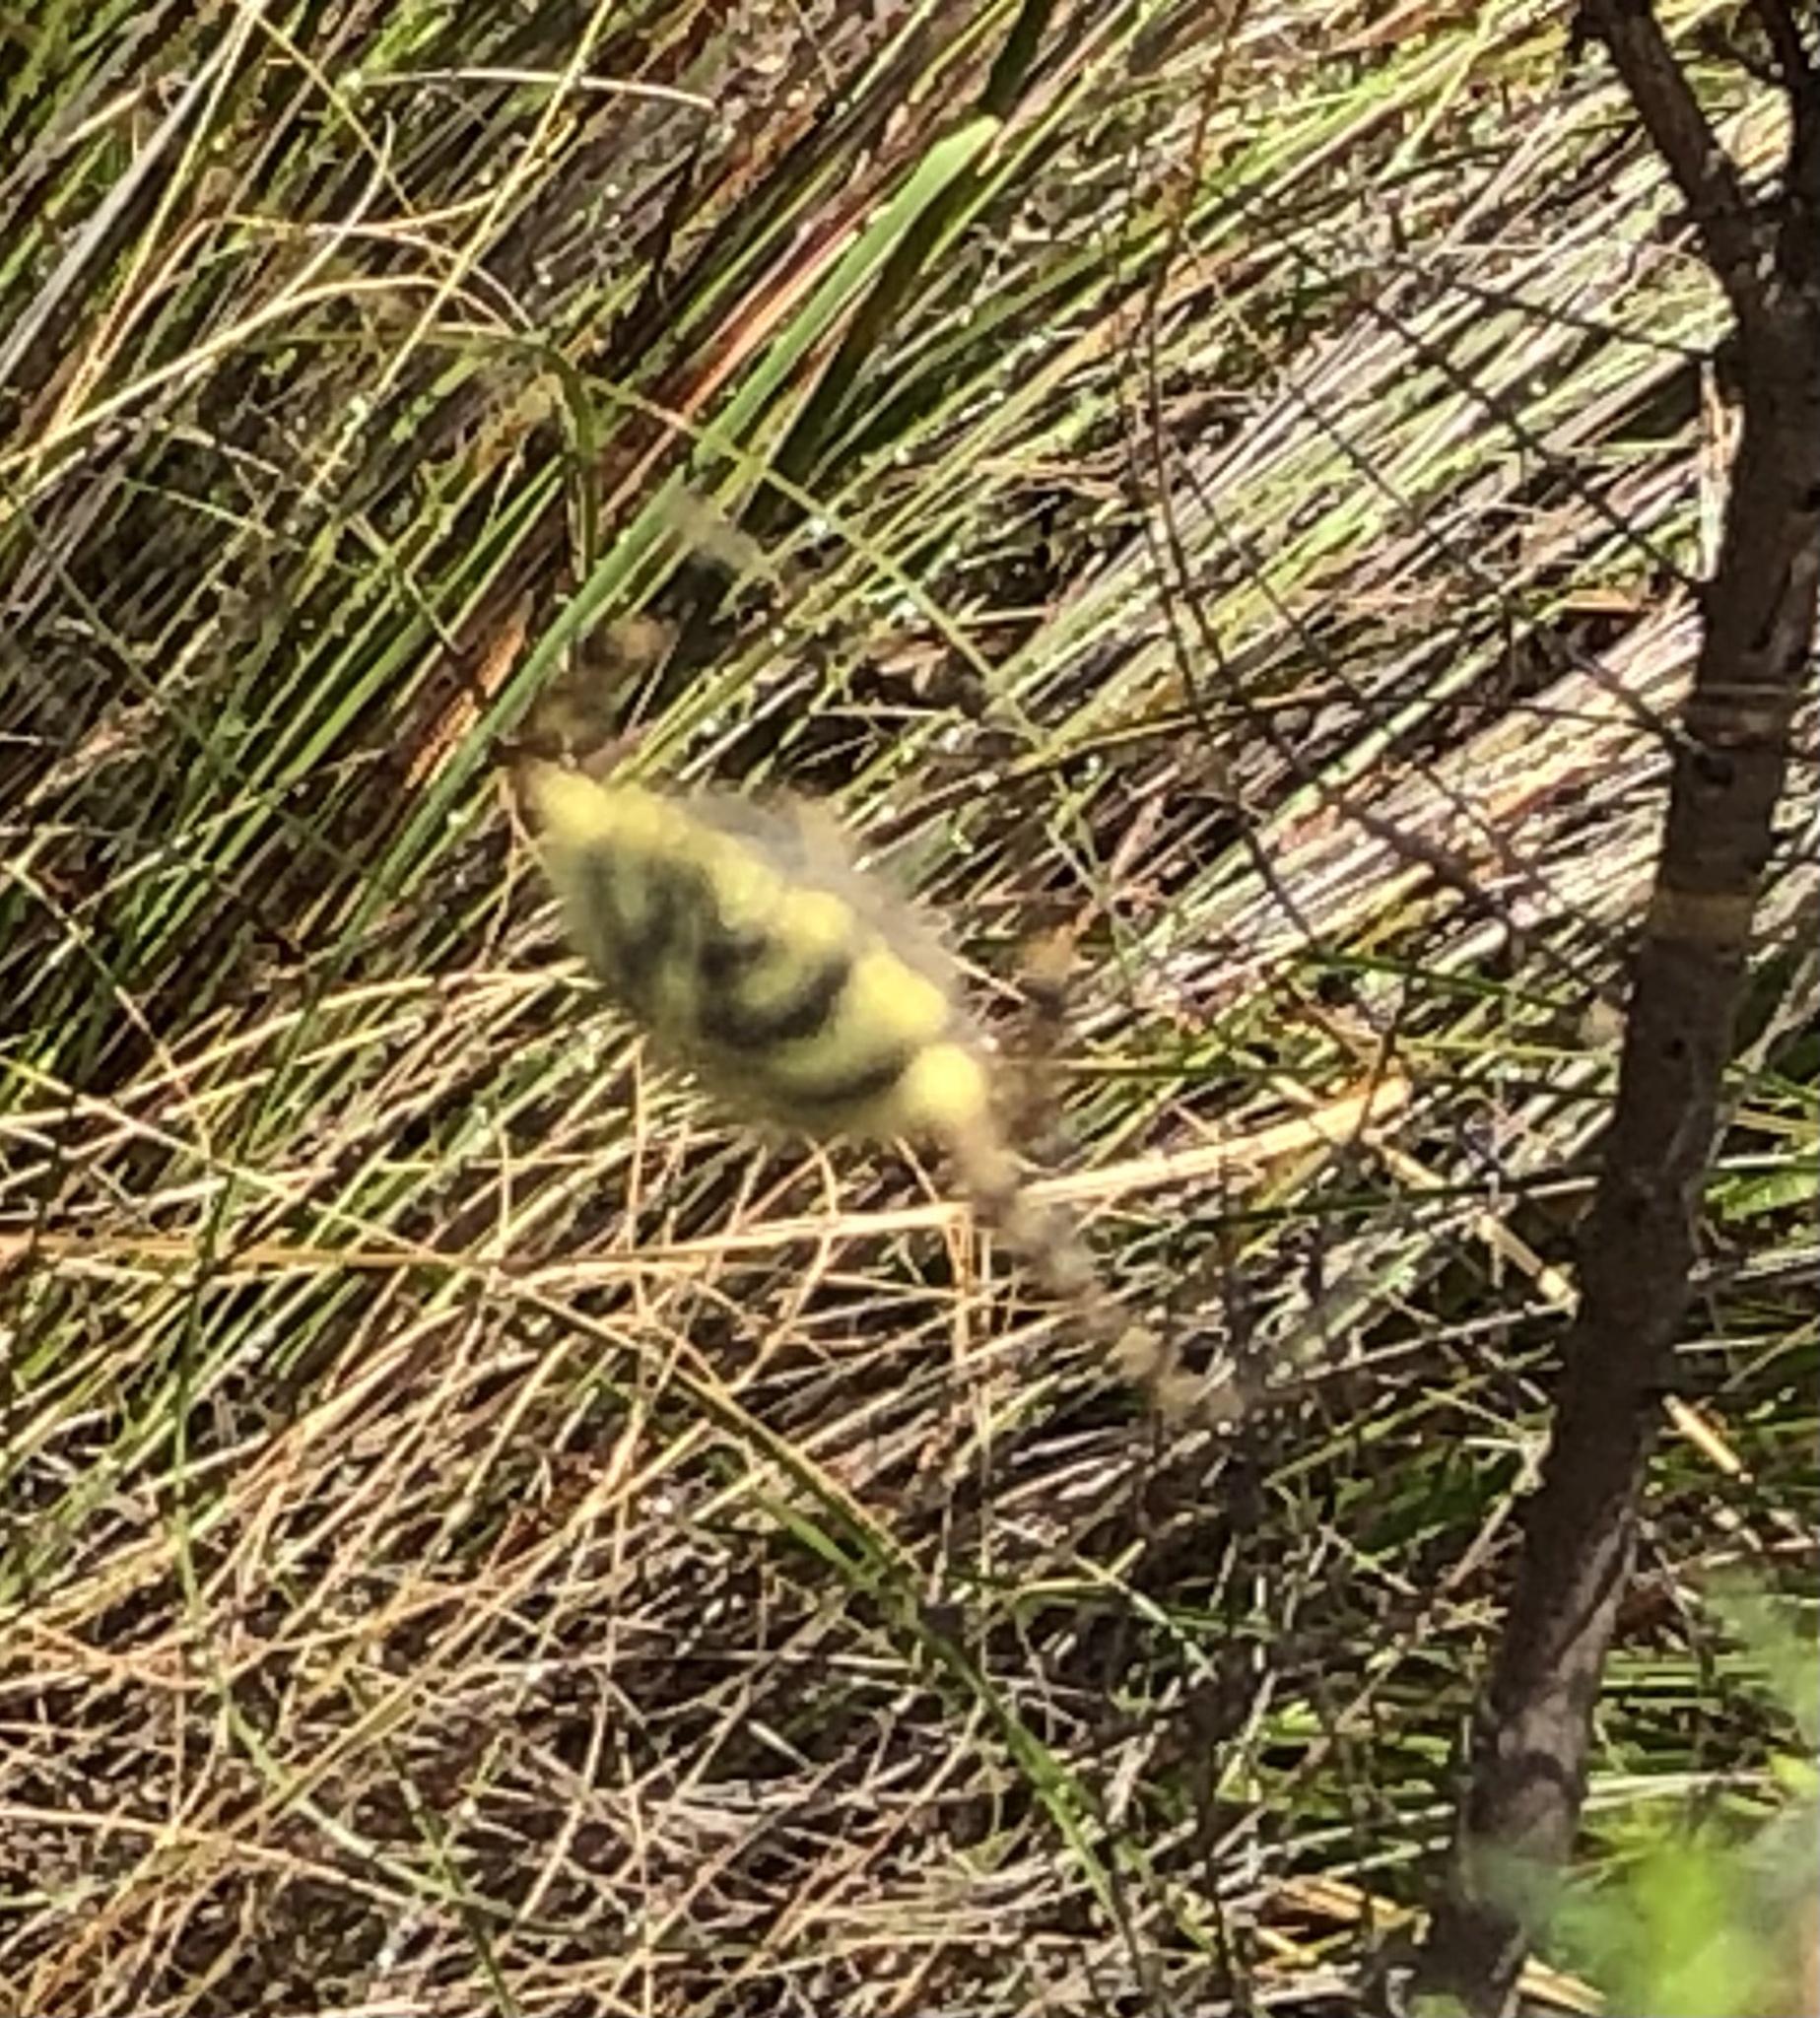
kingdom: Animalia
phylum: Arthropoda
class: Arachnida
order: Araneae
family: Araneidae
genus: Argiope
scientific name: Argiope australis
